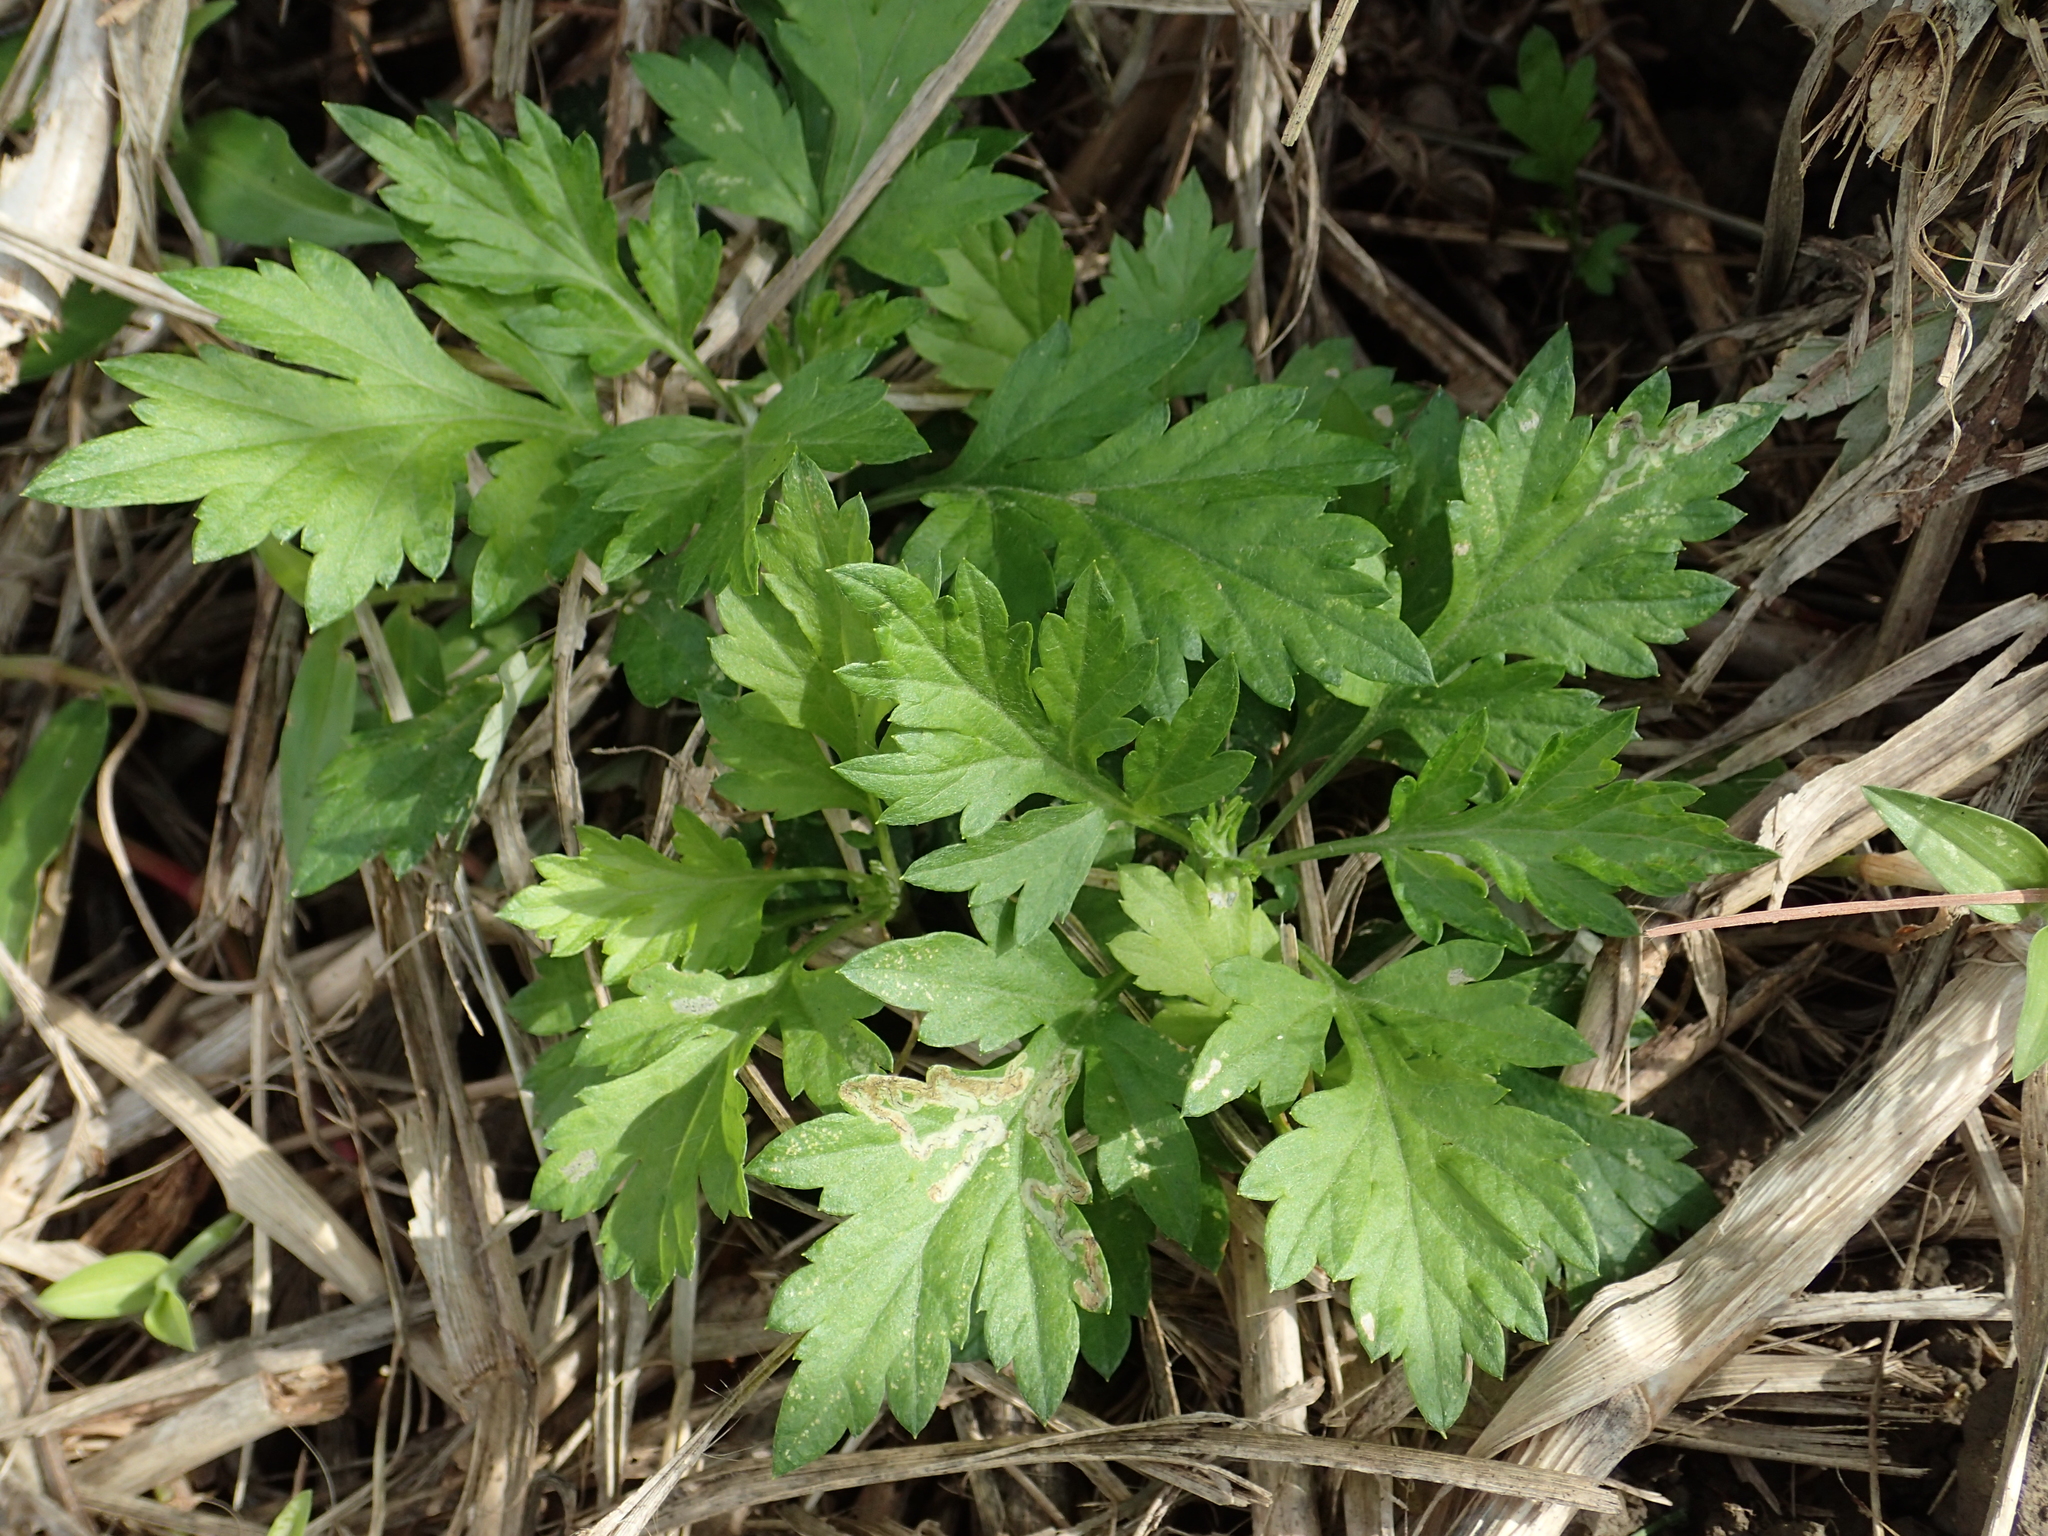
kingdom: Plantae
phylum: Tracheophyta
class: Magnoliopsida
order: Asterales
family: Asteraceae
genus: Artemisia
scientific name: Artemisia indica
